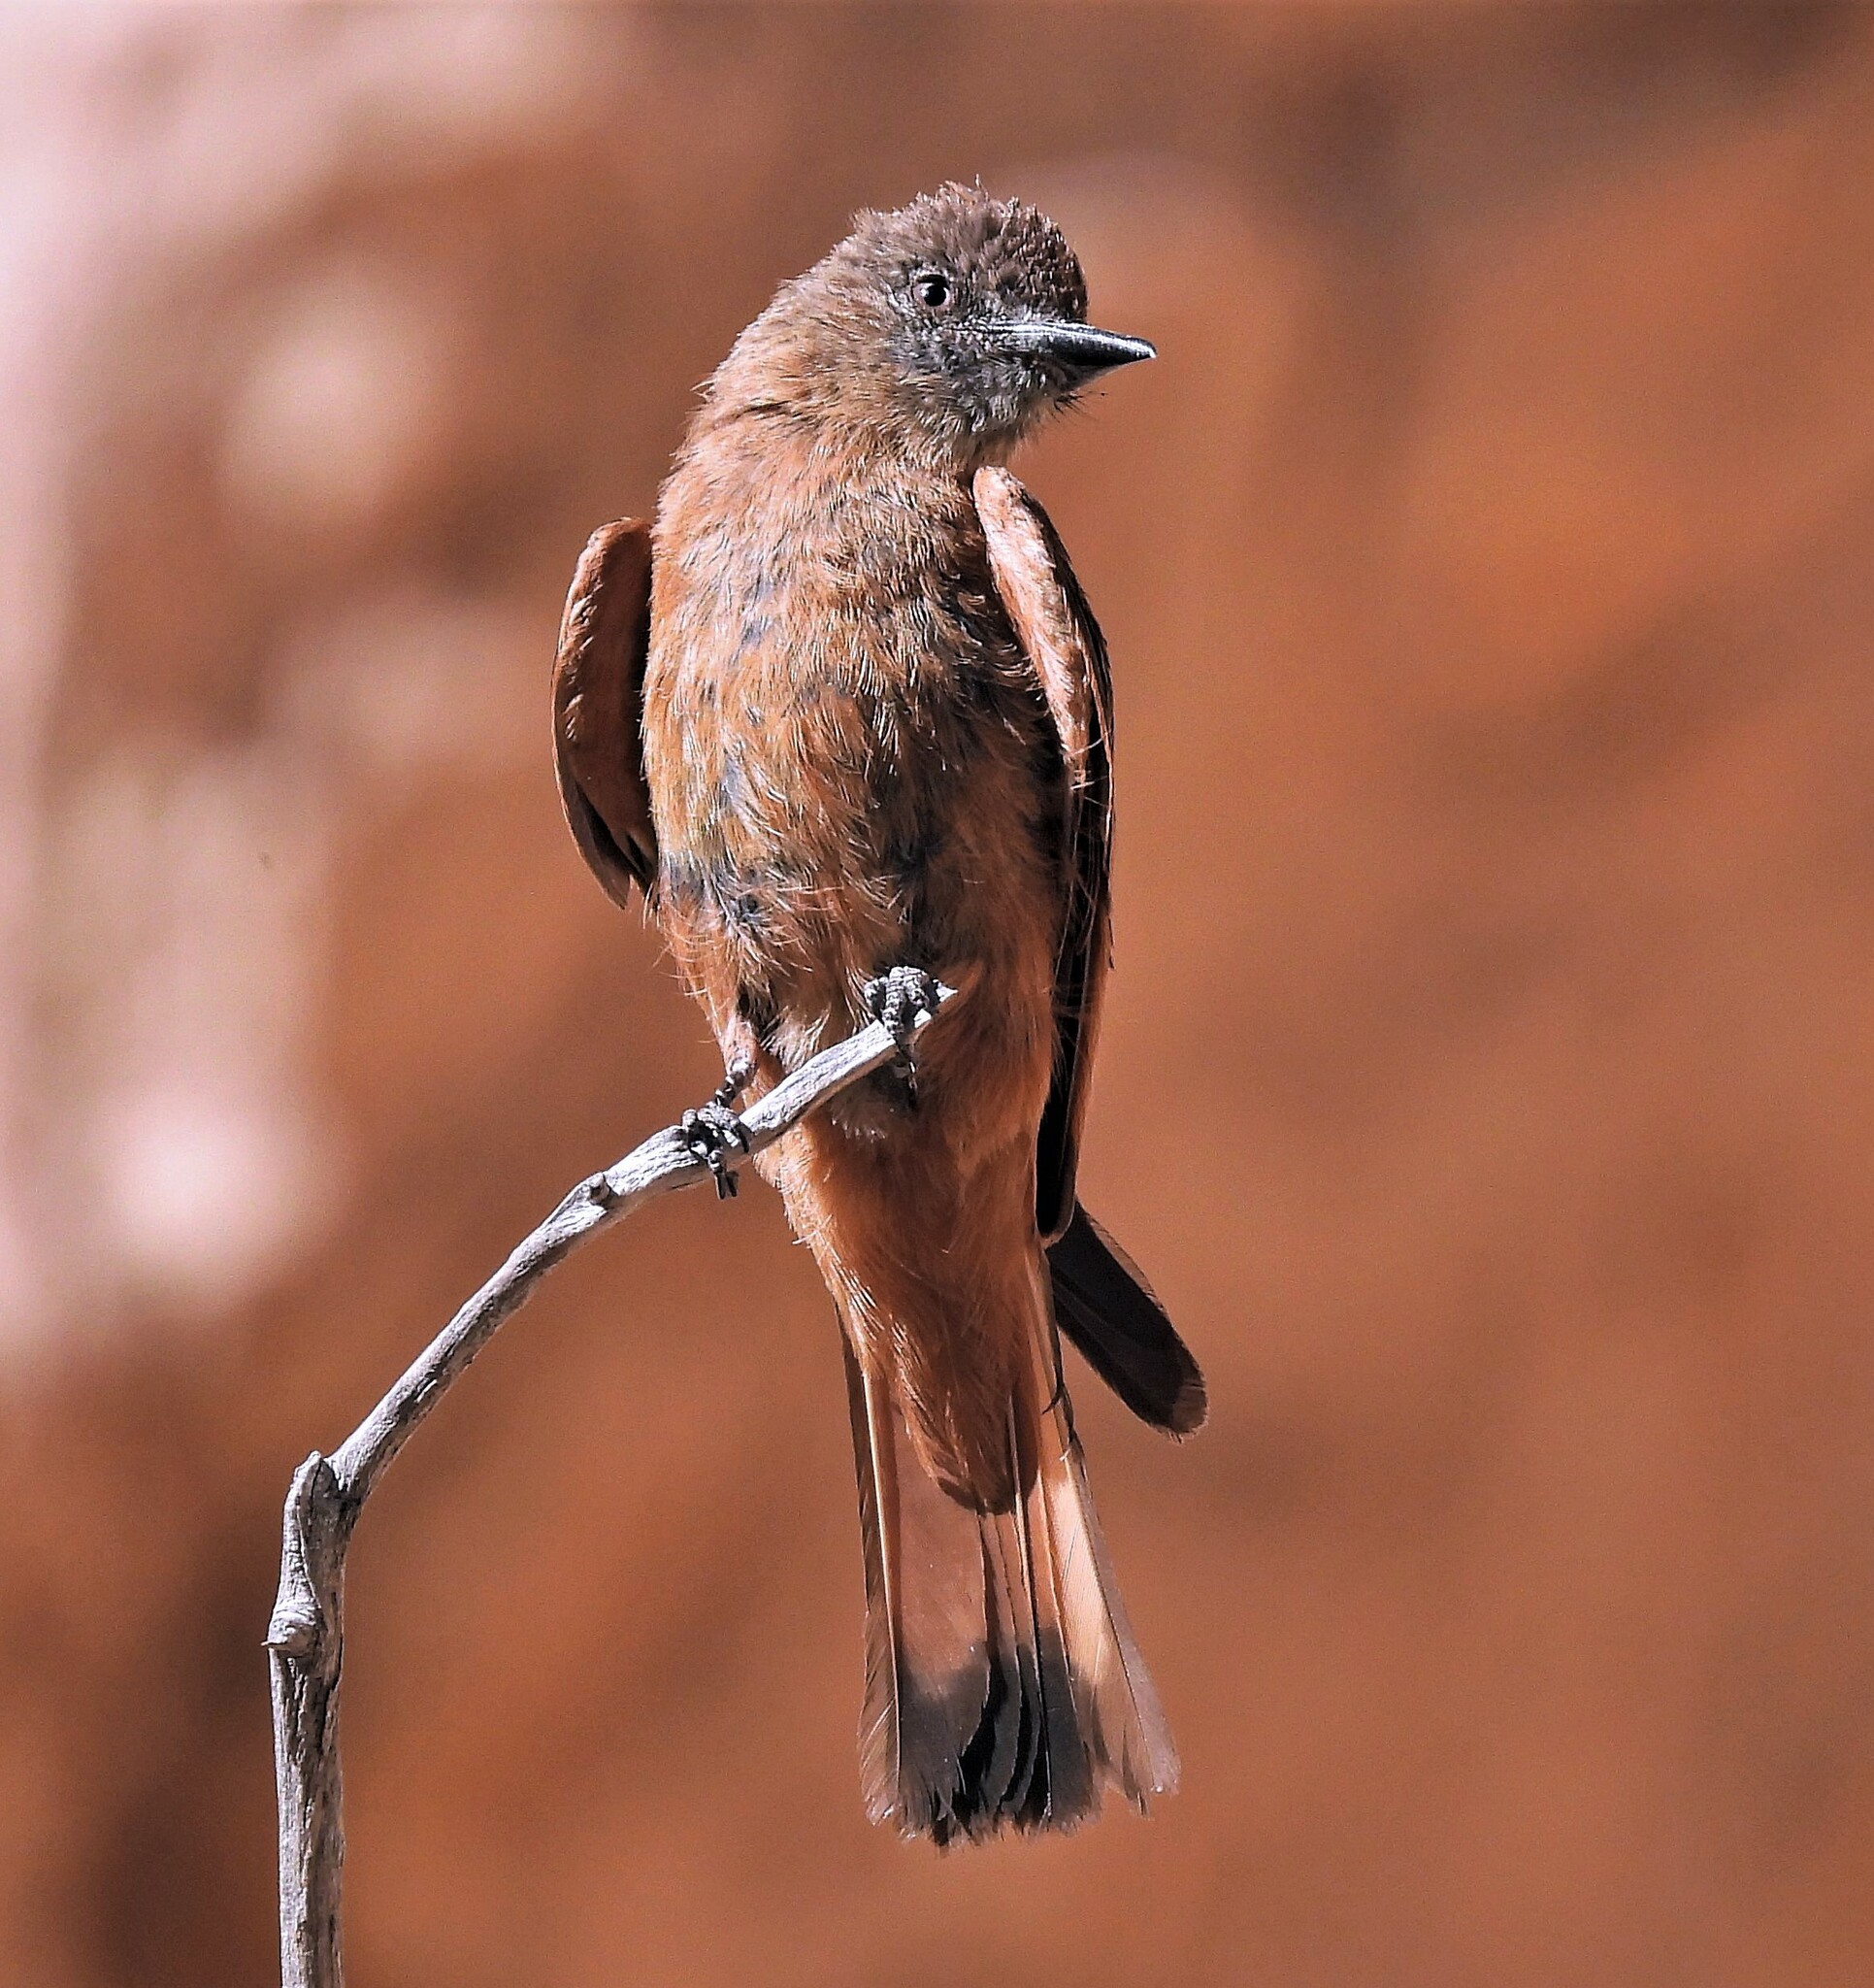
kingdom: Animalia
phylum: Chordata
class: Aves
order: Passeriformes
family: Tyrannidae
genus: Hirundinea
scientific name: Hirundinea ferruginea
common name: Cliff flycatcher
